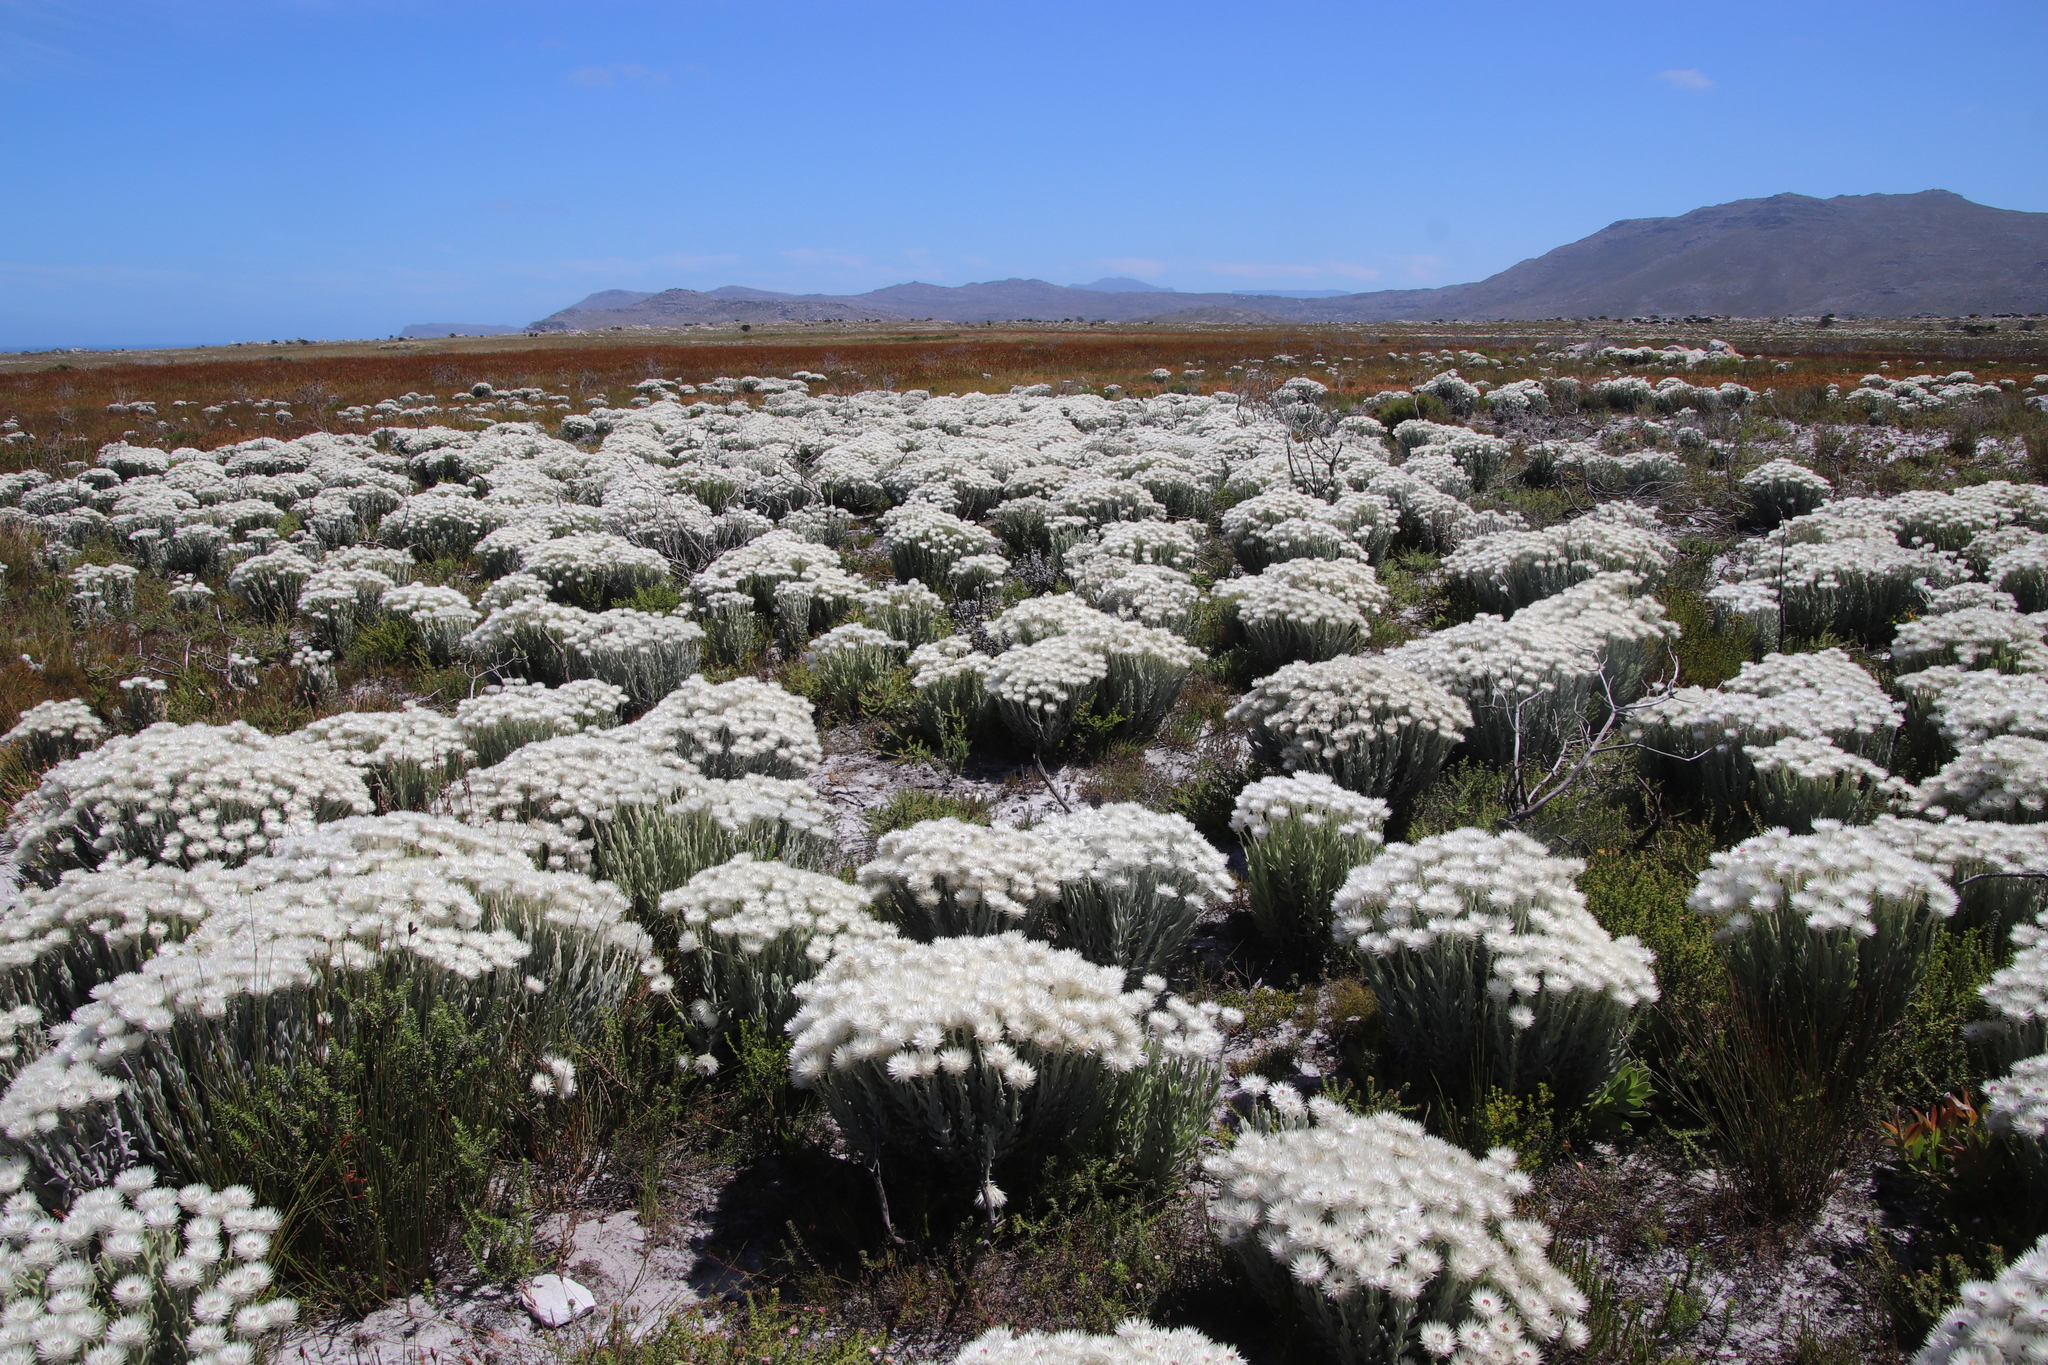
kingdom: Plantae
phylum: Tracheophyta
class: Magnoliopsida
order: Asterales
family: Asteraceae
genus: Syncarpha
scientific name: Syncarpha vestita
